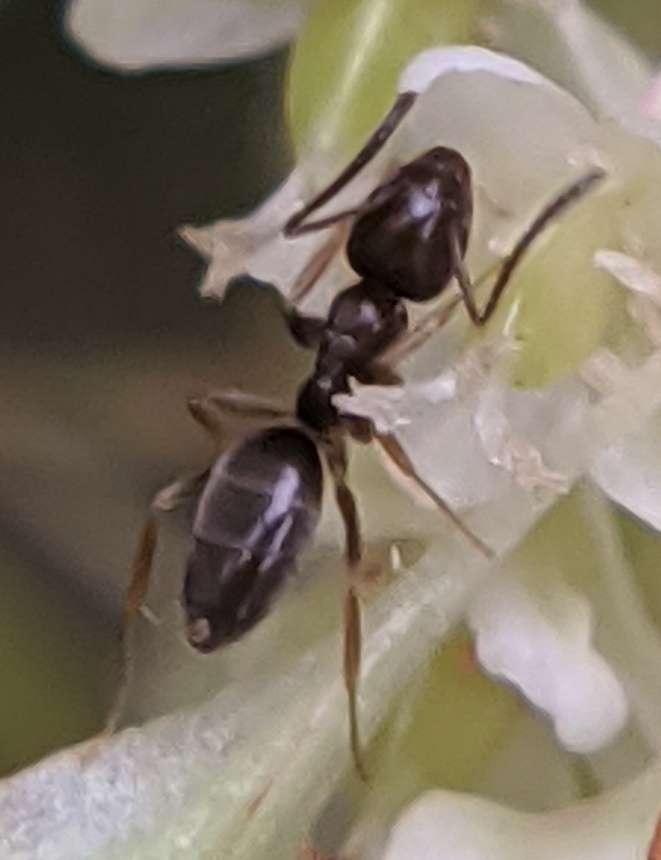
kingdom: Animalia
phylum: Arthropoda
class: Insecta
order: Hymenoptera
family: Formicidae
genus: Tapinoma
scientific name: Tapinoma sessile
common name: Odorous house ant
